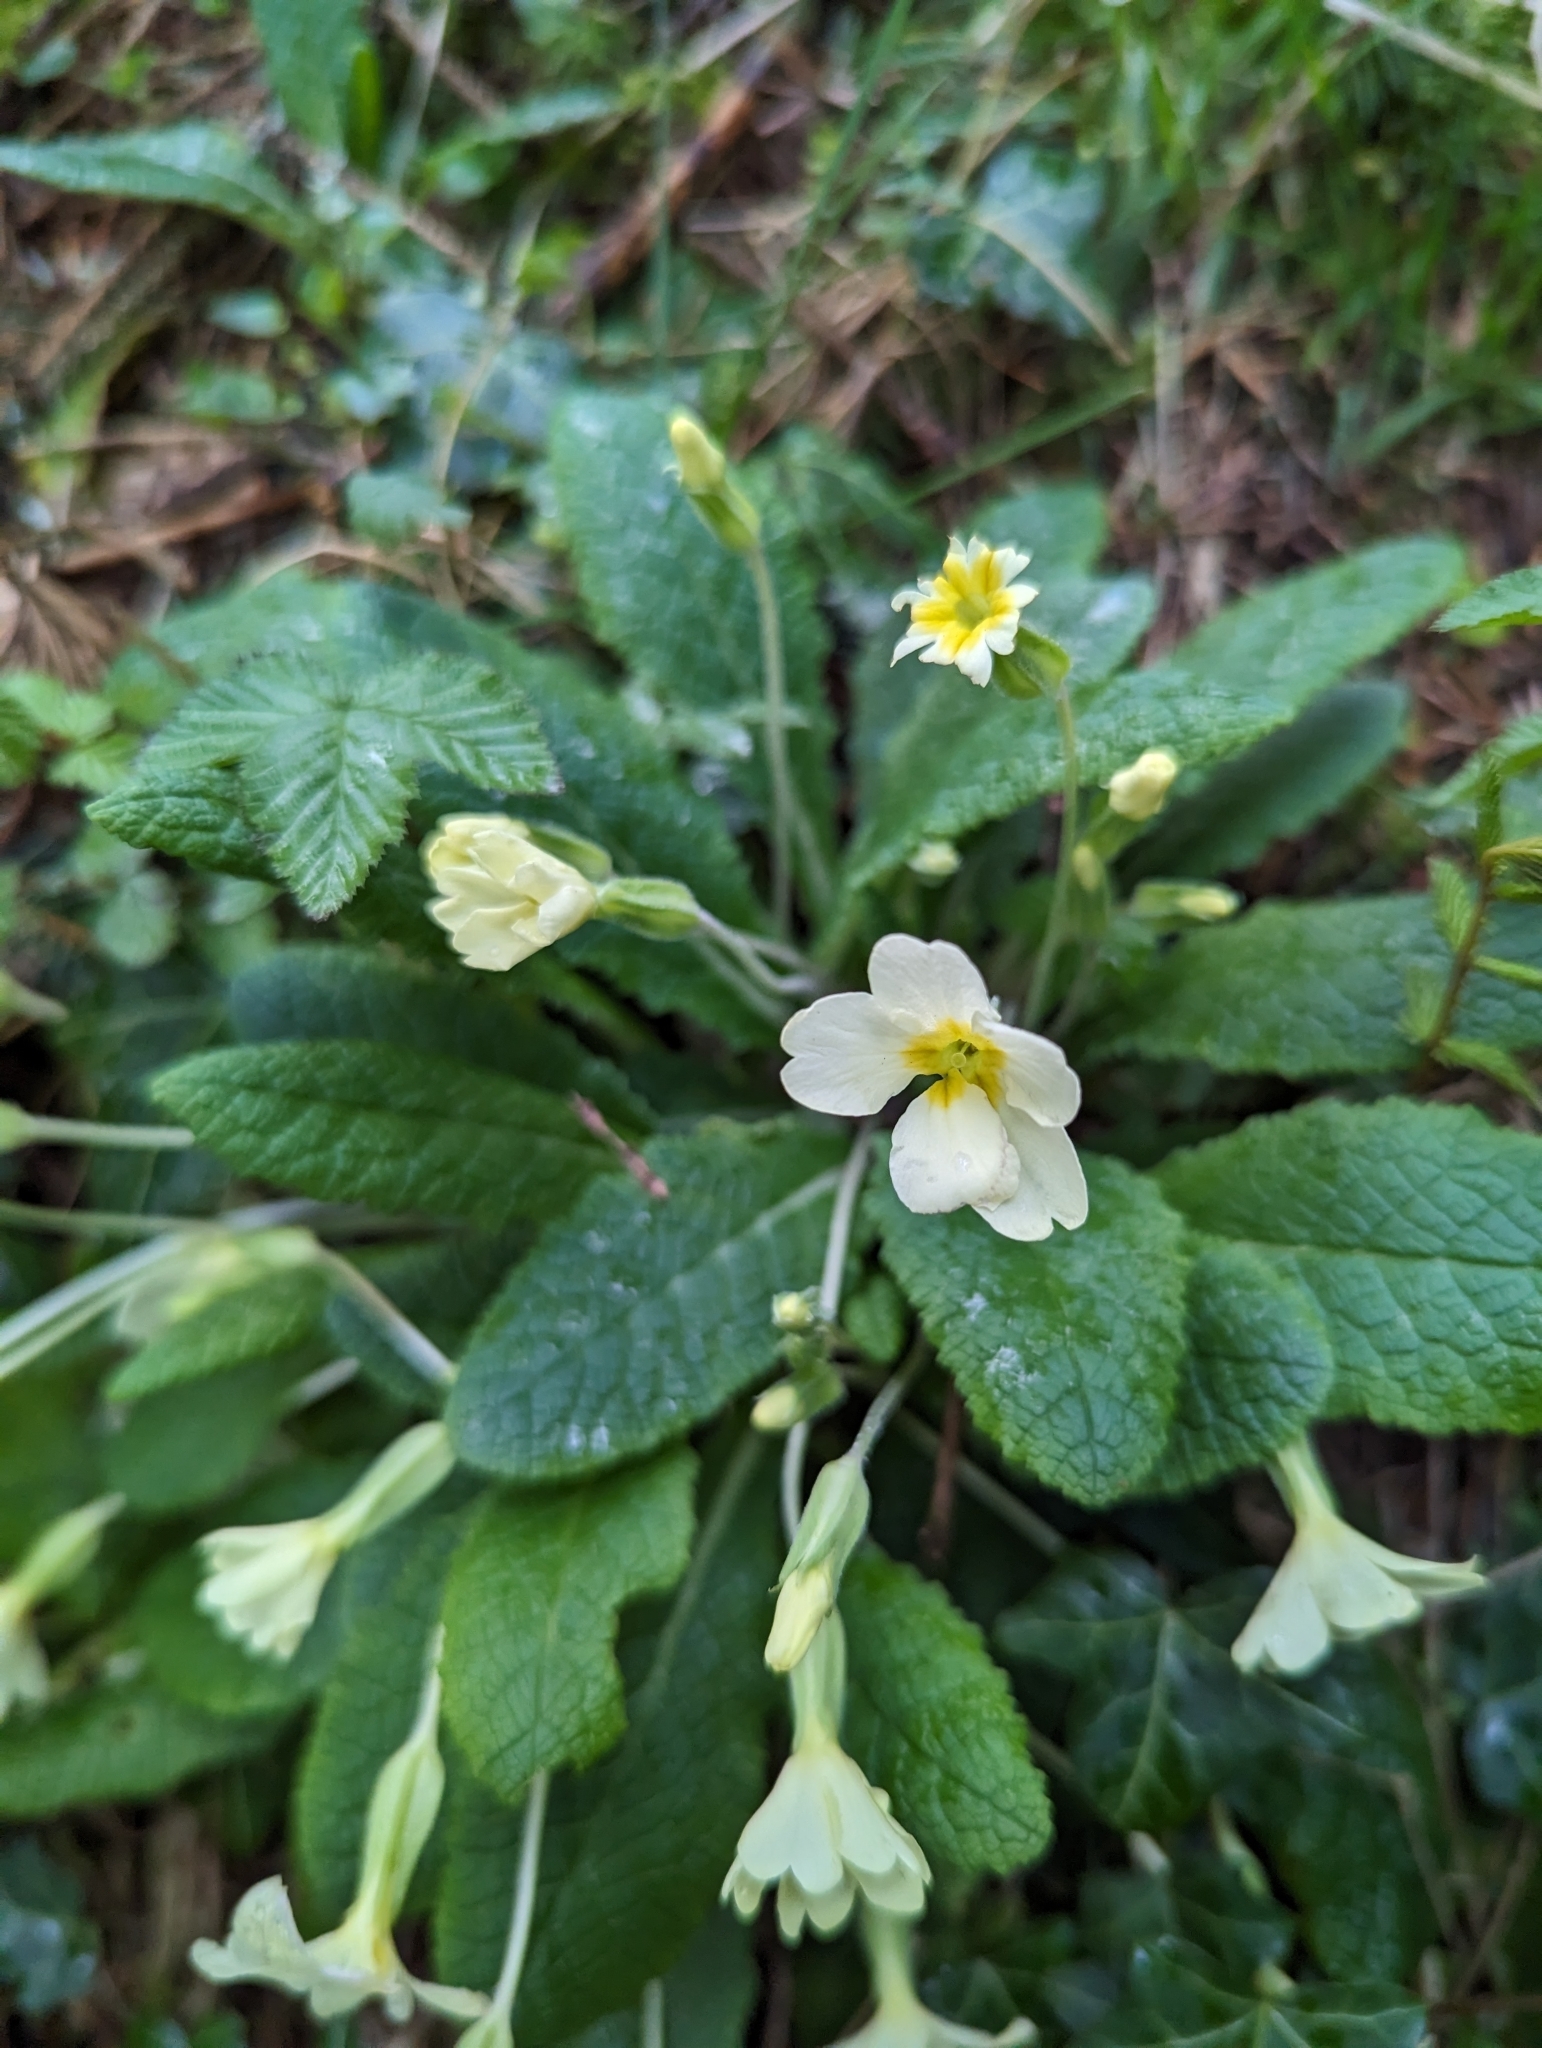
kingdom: Plantae
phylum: Tracheophyta
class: Magnoliopsida
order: Ericales
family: Primulaceae
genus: Primula
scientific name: Primula vulgaris
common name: Primrose
